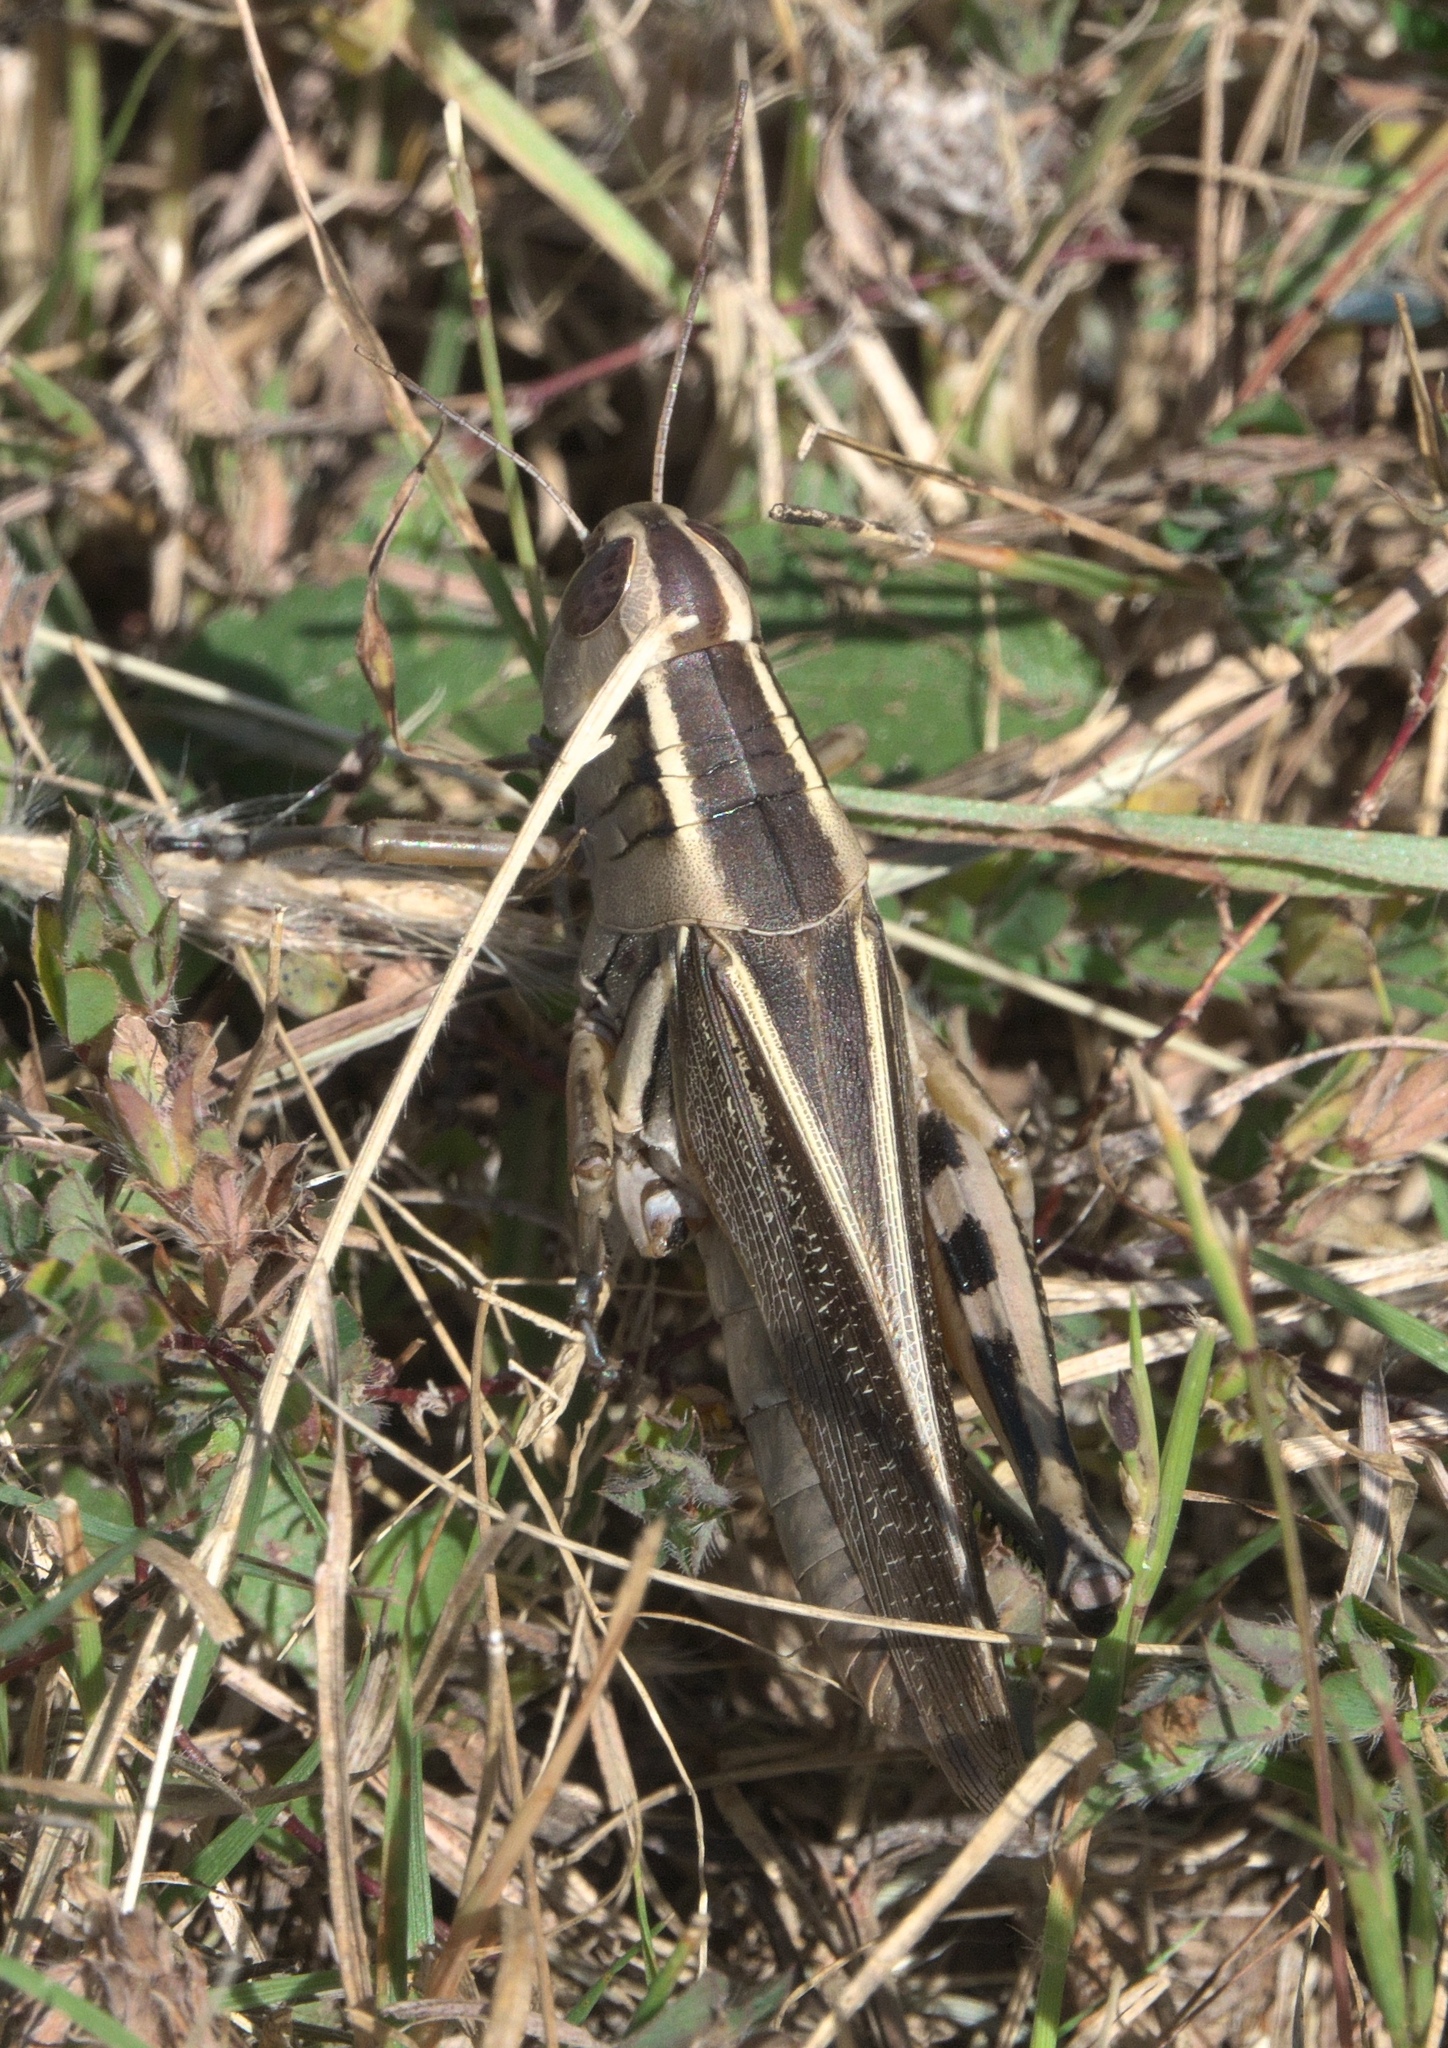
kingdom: Animalia
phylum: Arthropoda
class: Insecta
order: Orthoptera
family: Acrididae
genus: Melanoplus
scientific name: Melanoplus bivittatus
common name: Two-striped grasshopper
